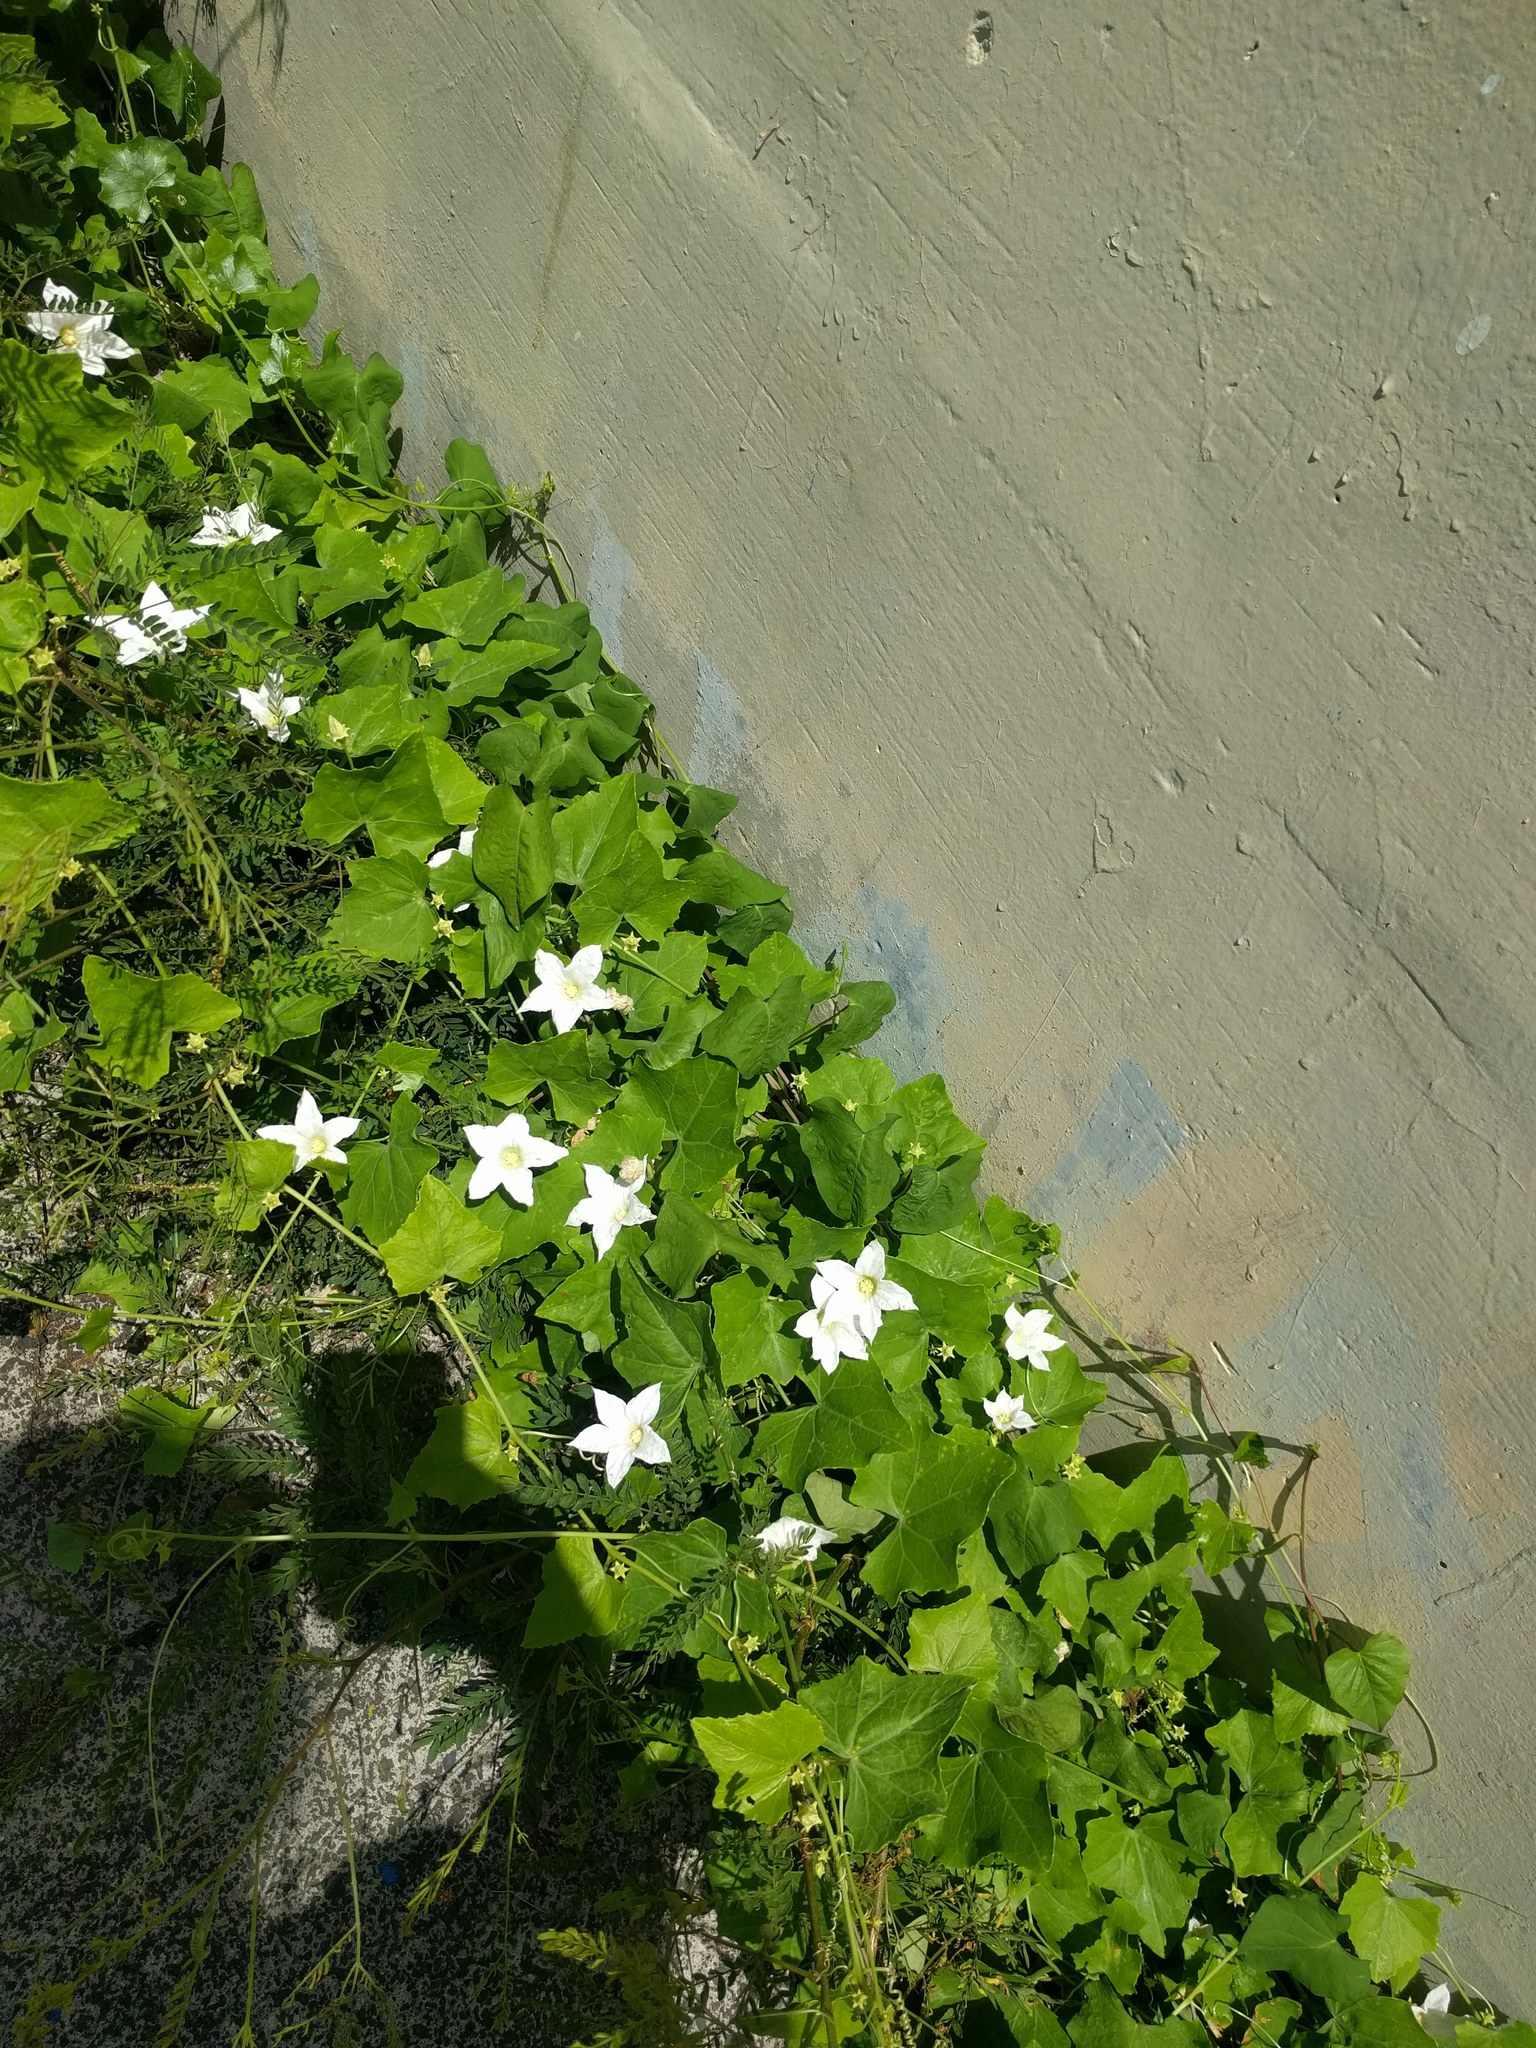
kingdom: Plantae
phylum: Tracheophyta
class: Magnoliopsida
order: Cucurbitales
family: Cucurbitaceae
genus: Coccinia
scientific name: Coccinia grandis
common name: Ivy gourd
